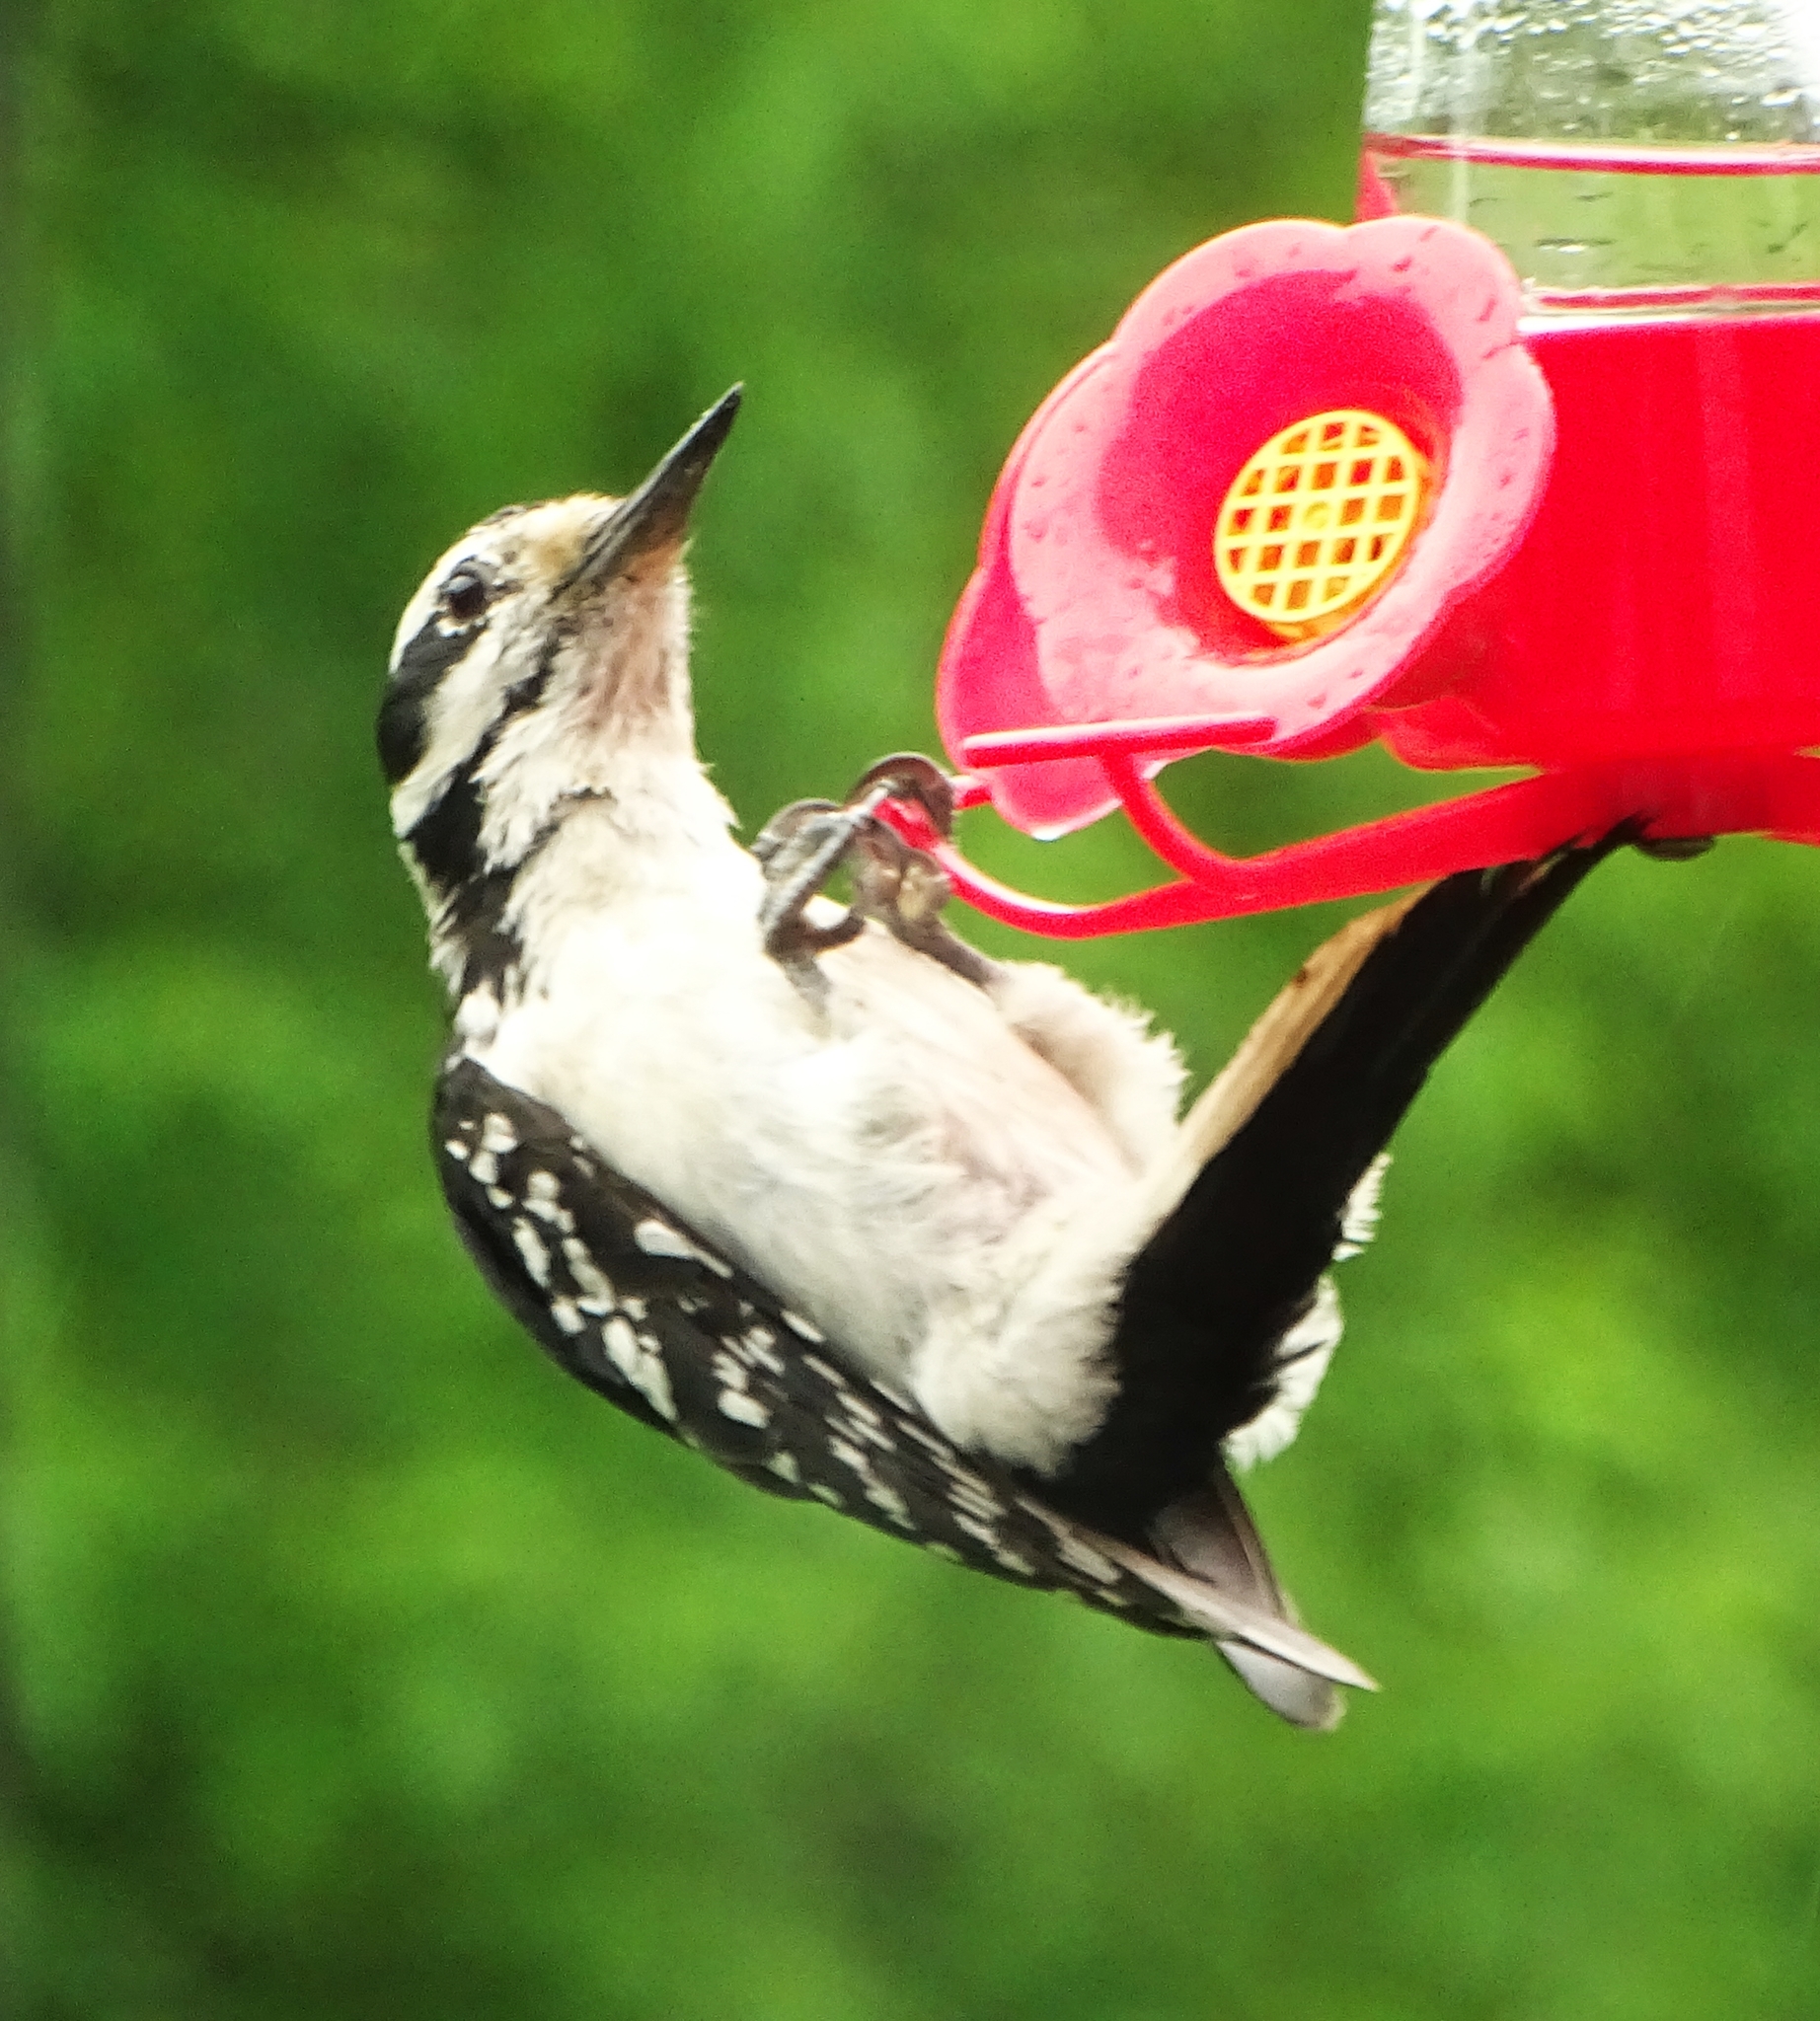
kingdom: Animalia
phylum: Chordata
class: Aves
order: Piciformes
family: Picidae
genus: Leuconotopicus
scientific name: Leuconotopicus villosus
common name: Hairy woodpecker
